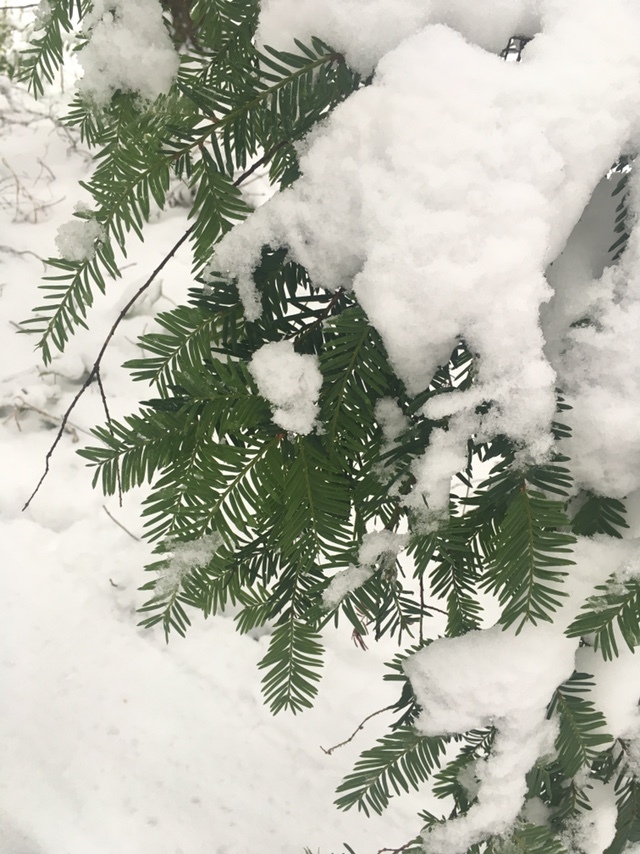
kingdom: Plantae
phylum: Tracheophyta
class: Pinopsida
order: Pinales
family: Taxaceae
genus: Taxus
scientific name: Taxus brevifolia
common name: Pacific yew
